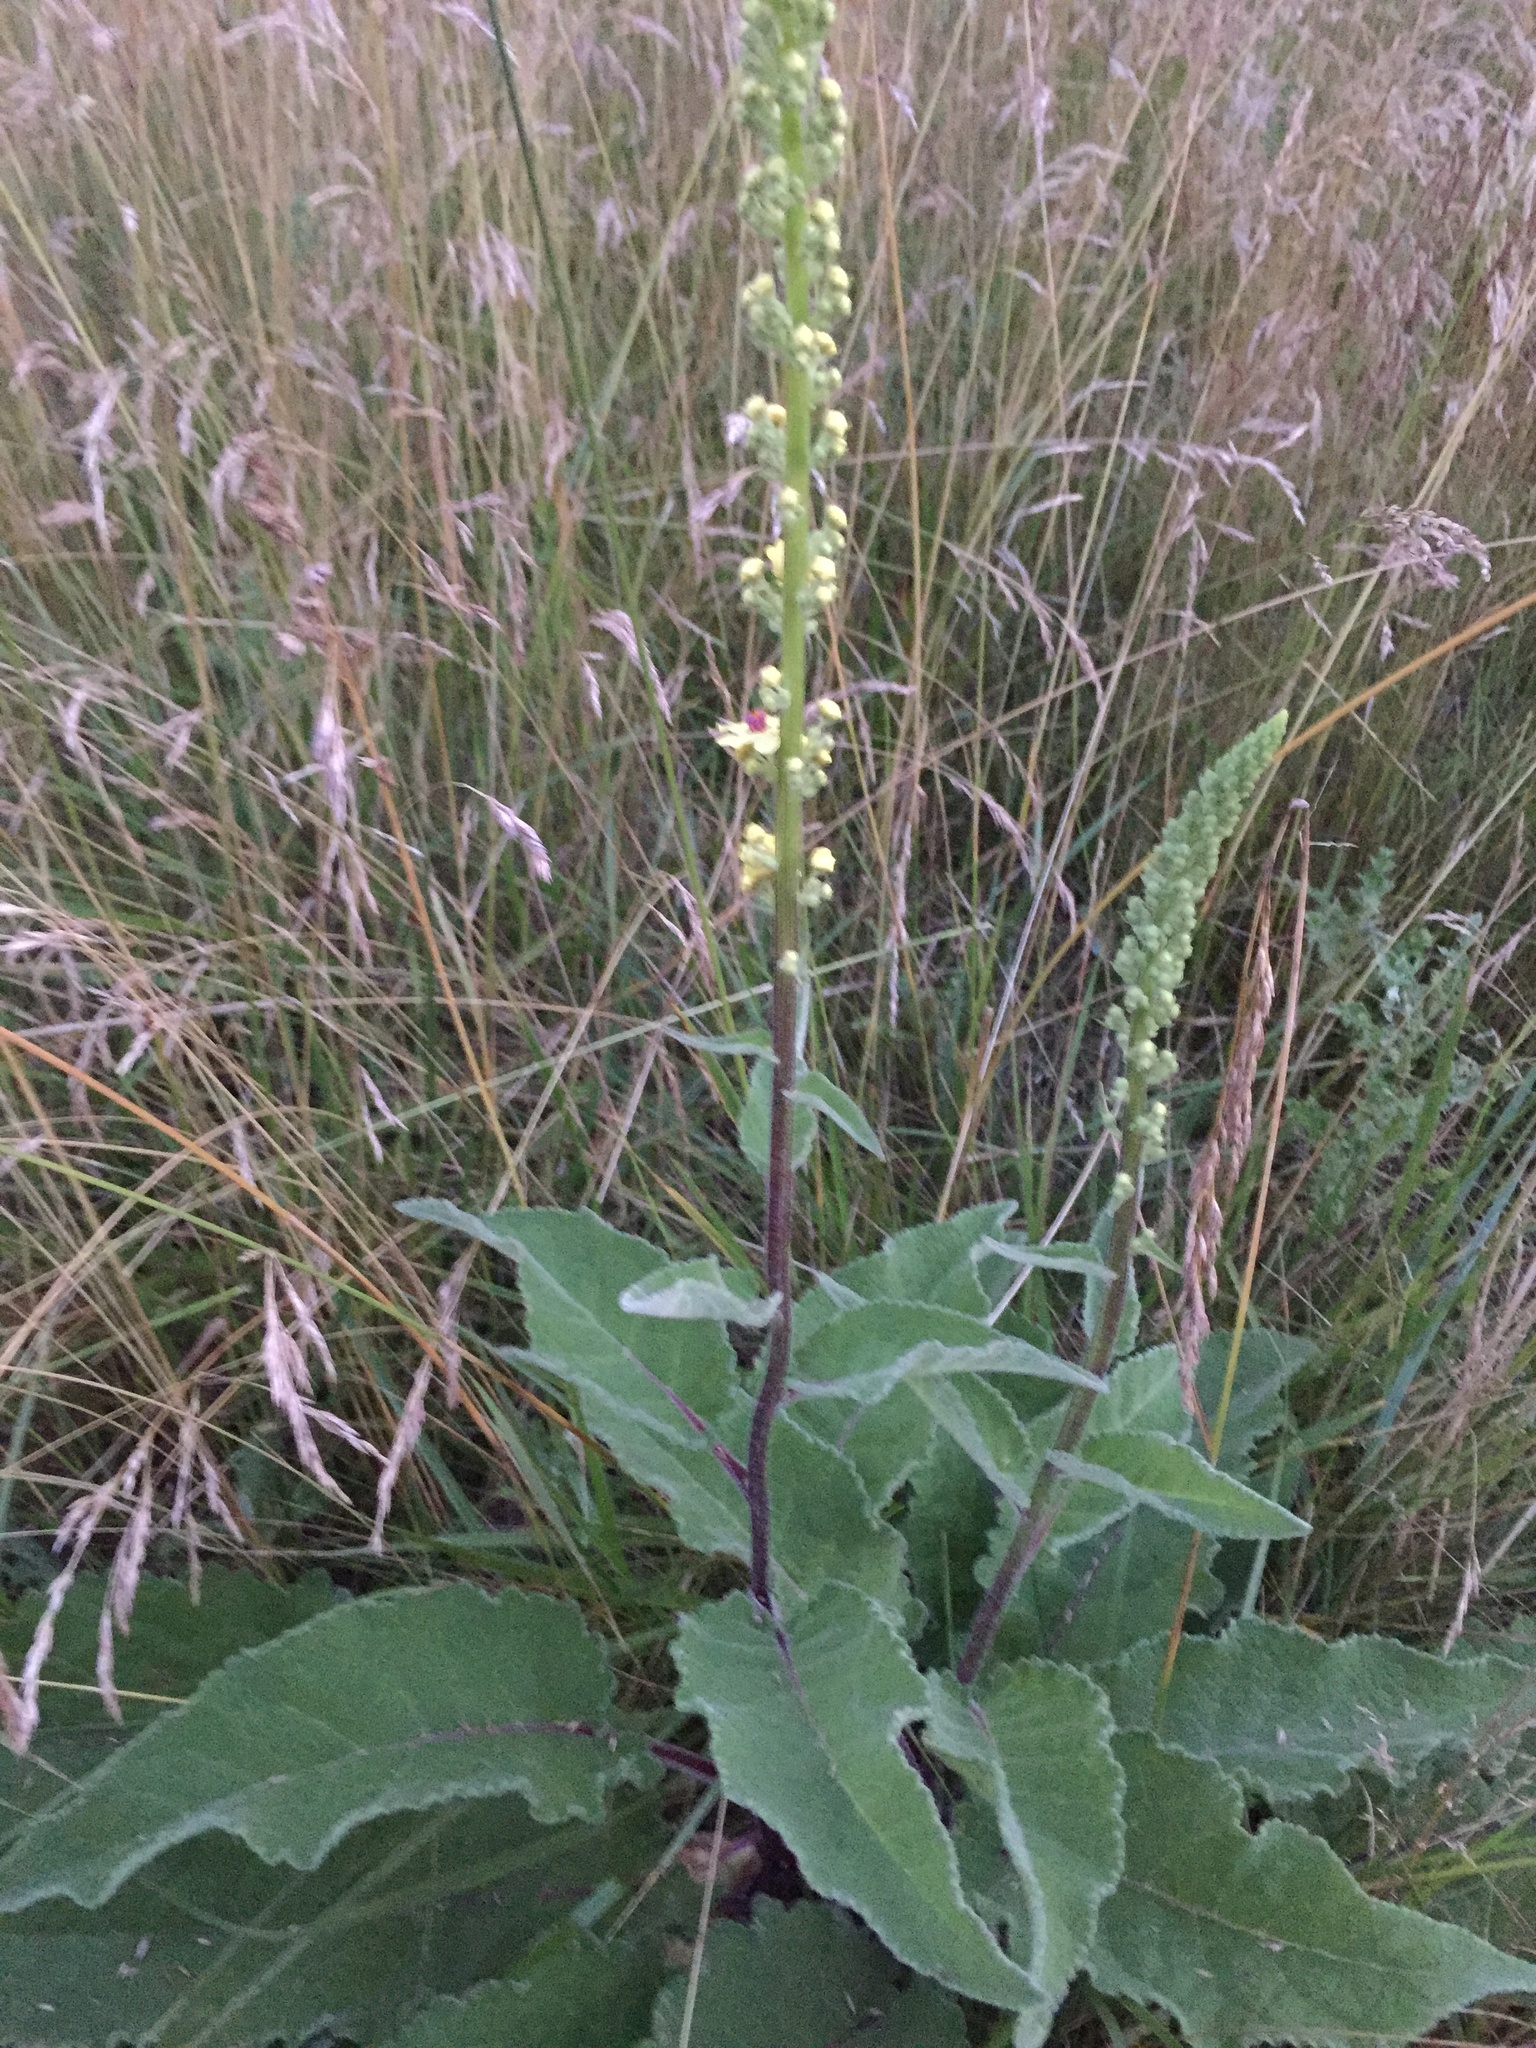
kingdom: Plantae
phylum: Tracheophyta
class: Magnoliopsida
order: Lamiales
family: Scrophulariaceae
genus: Verbascum
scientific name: Verbascum nigrum
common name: Dark mullein
